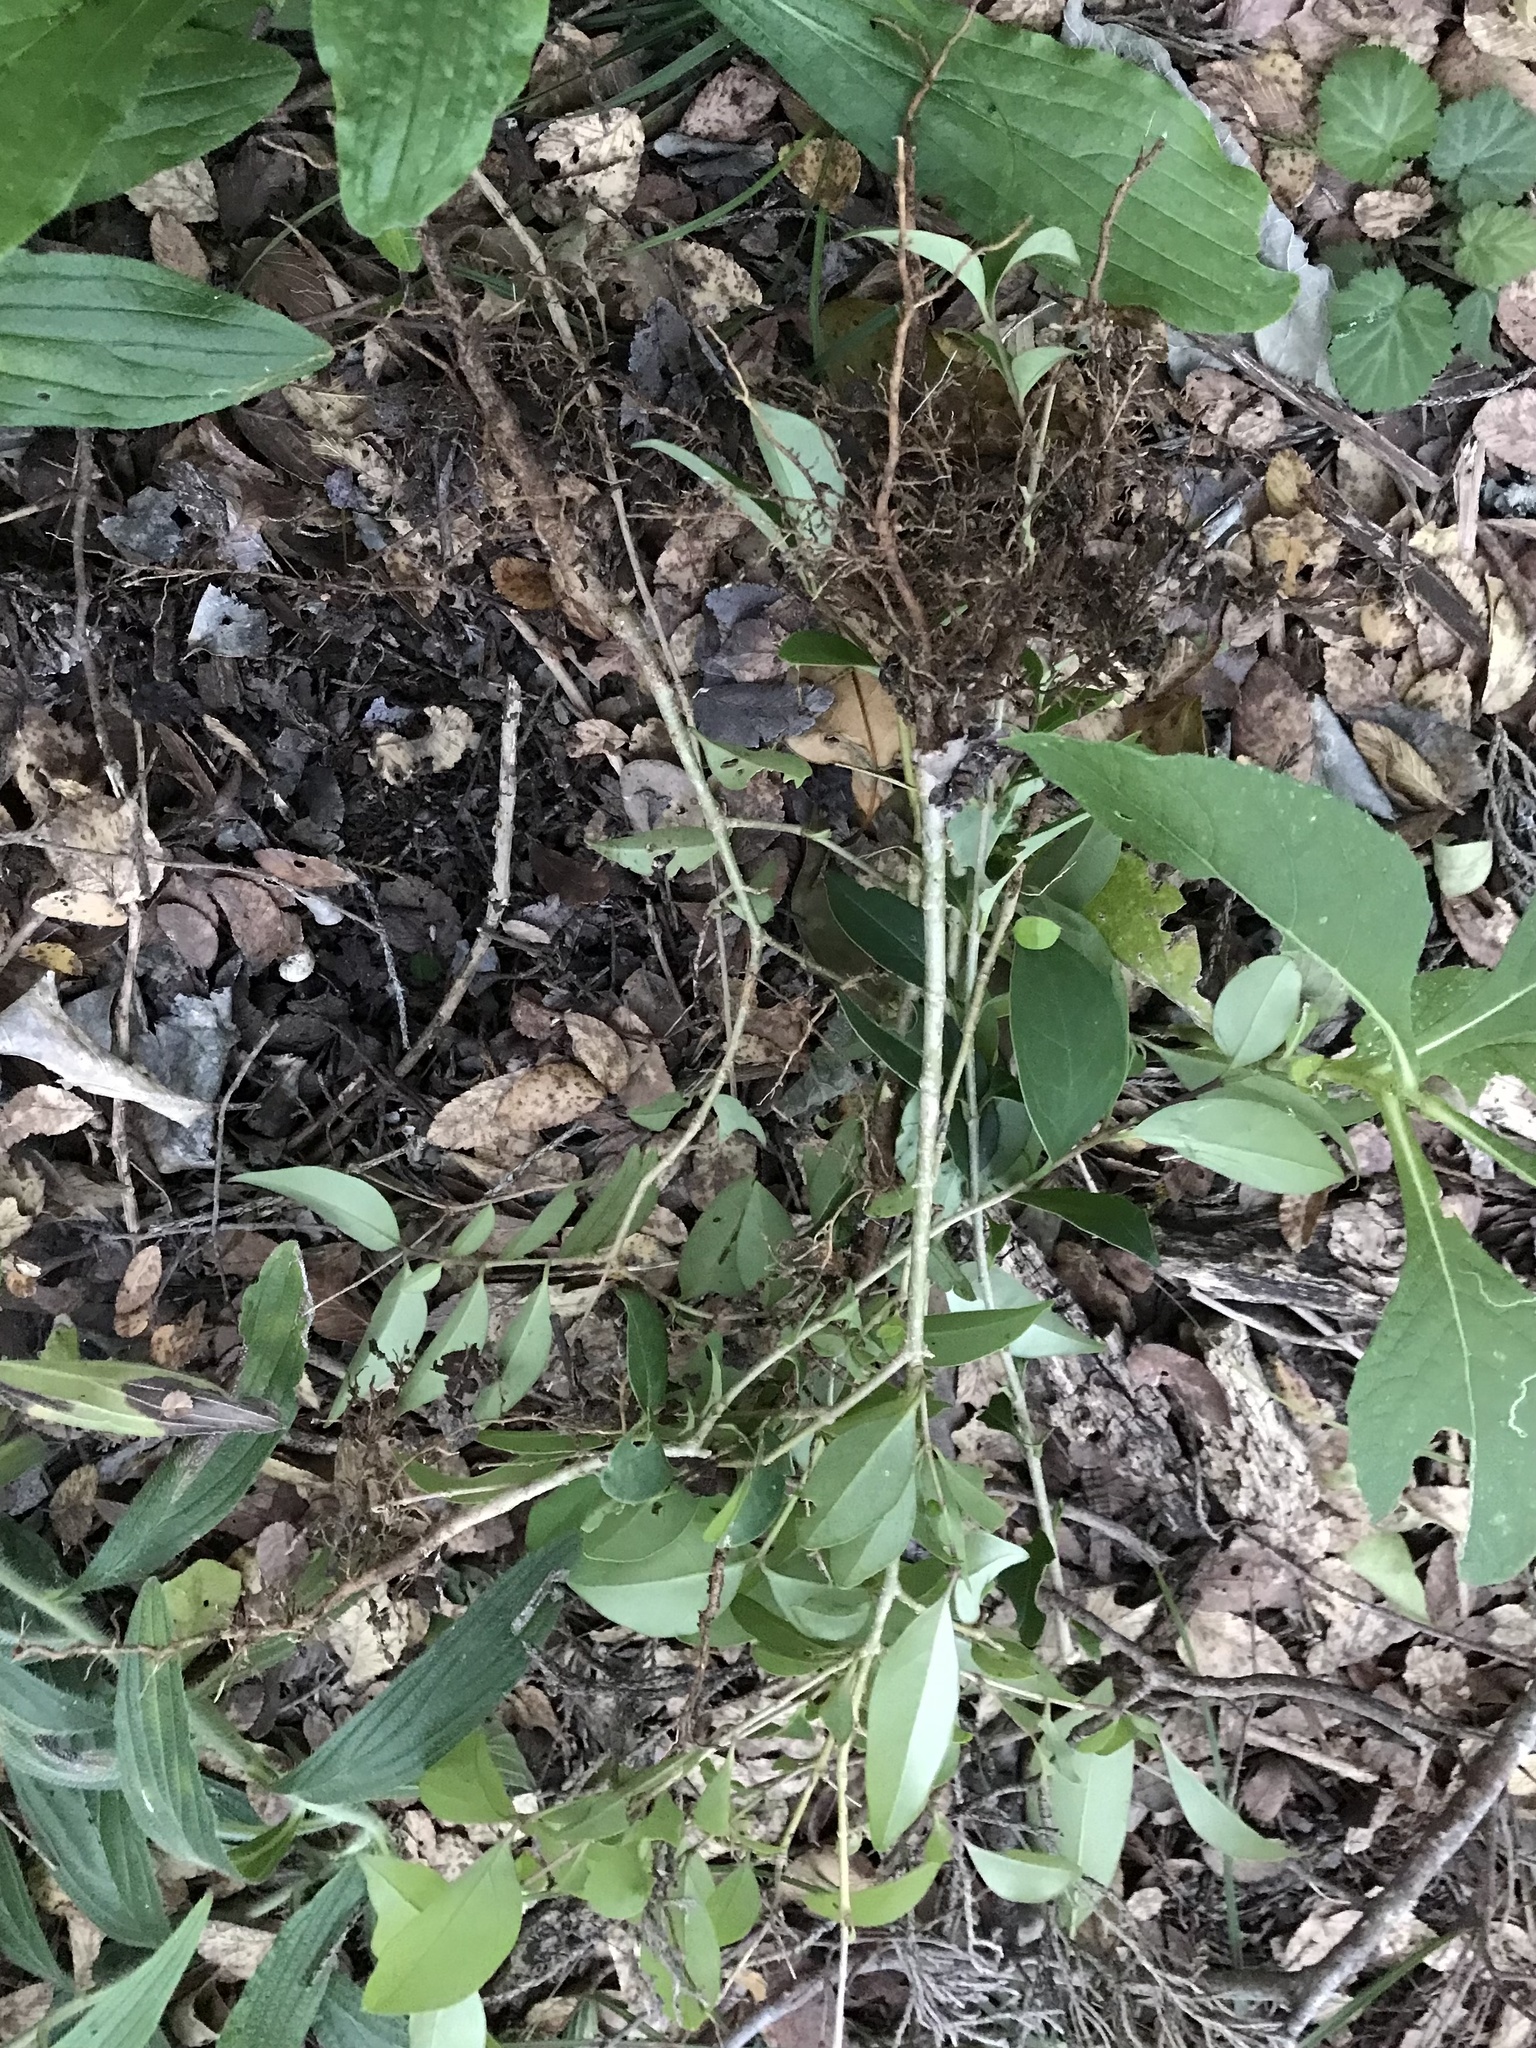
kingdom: Plantae
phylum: Tracheophyta
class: Magnoliopsida
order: Lamiales
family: Oleaceae
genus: Ligustrum
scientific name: Ligustrum lucidum
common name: Glossy privet
